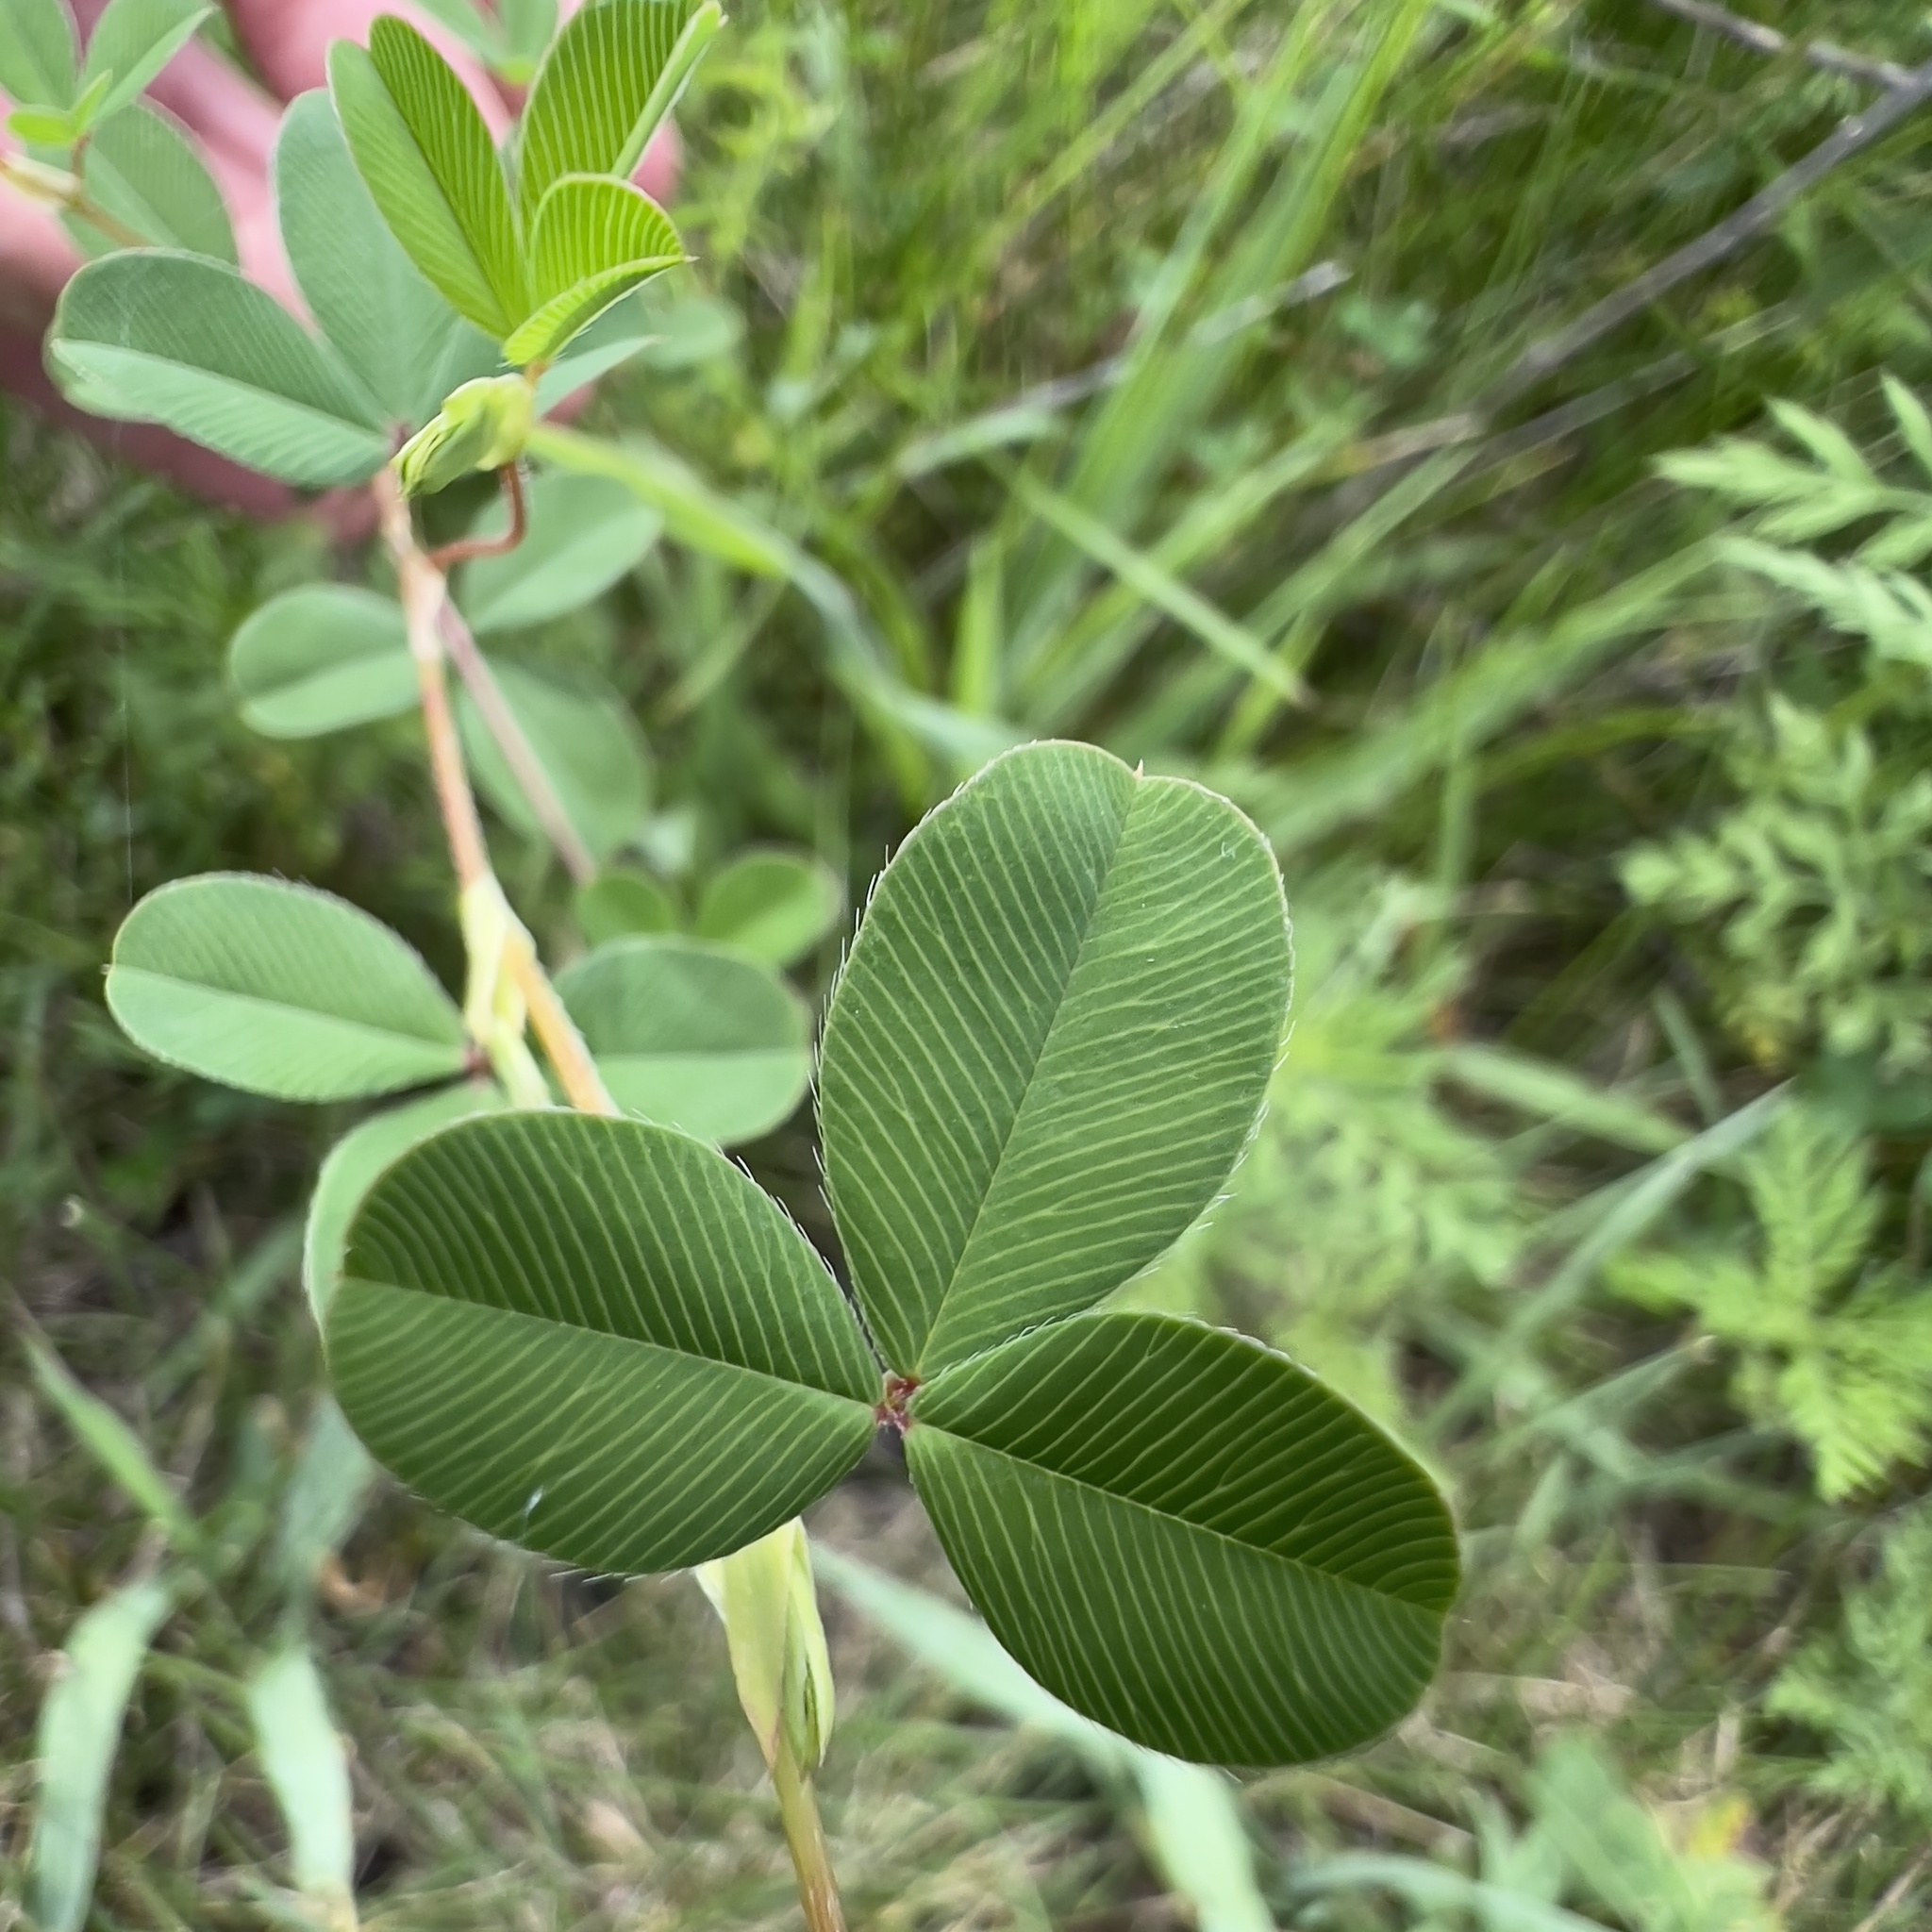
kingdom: Plantae
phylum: Tracheophyta
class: Magnoliopsida
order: Fabales
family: Fabaceae
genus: Kummerowia
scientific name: Kummerowia stipulacea
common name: Korean clover
